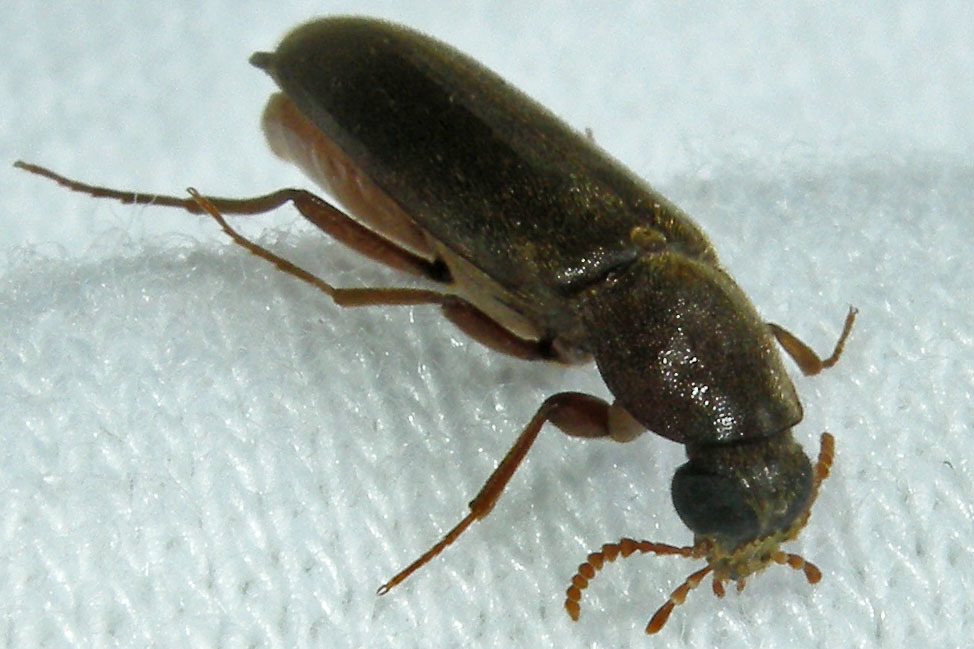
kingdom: Animalia
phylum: Arthropoda
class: Insecta
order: Coleoptera
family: Lymexylidae
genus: Melittomma
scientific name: Melittomma sericeum
